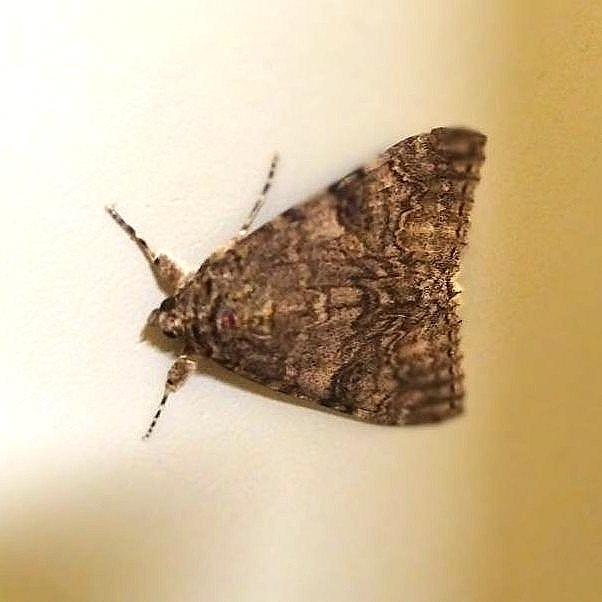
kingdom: Animalia
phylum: Arthropoda
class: Insecta
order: Lepidoptera
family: Erebidae
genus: Catocala
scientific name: Catocala nupta
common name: Red underwing
